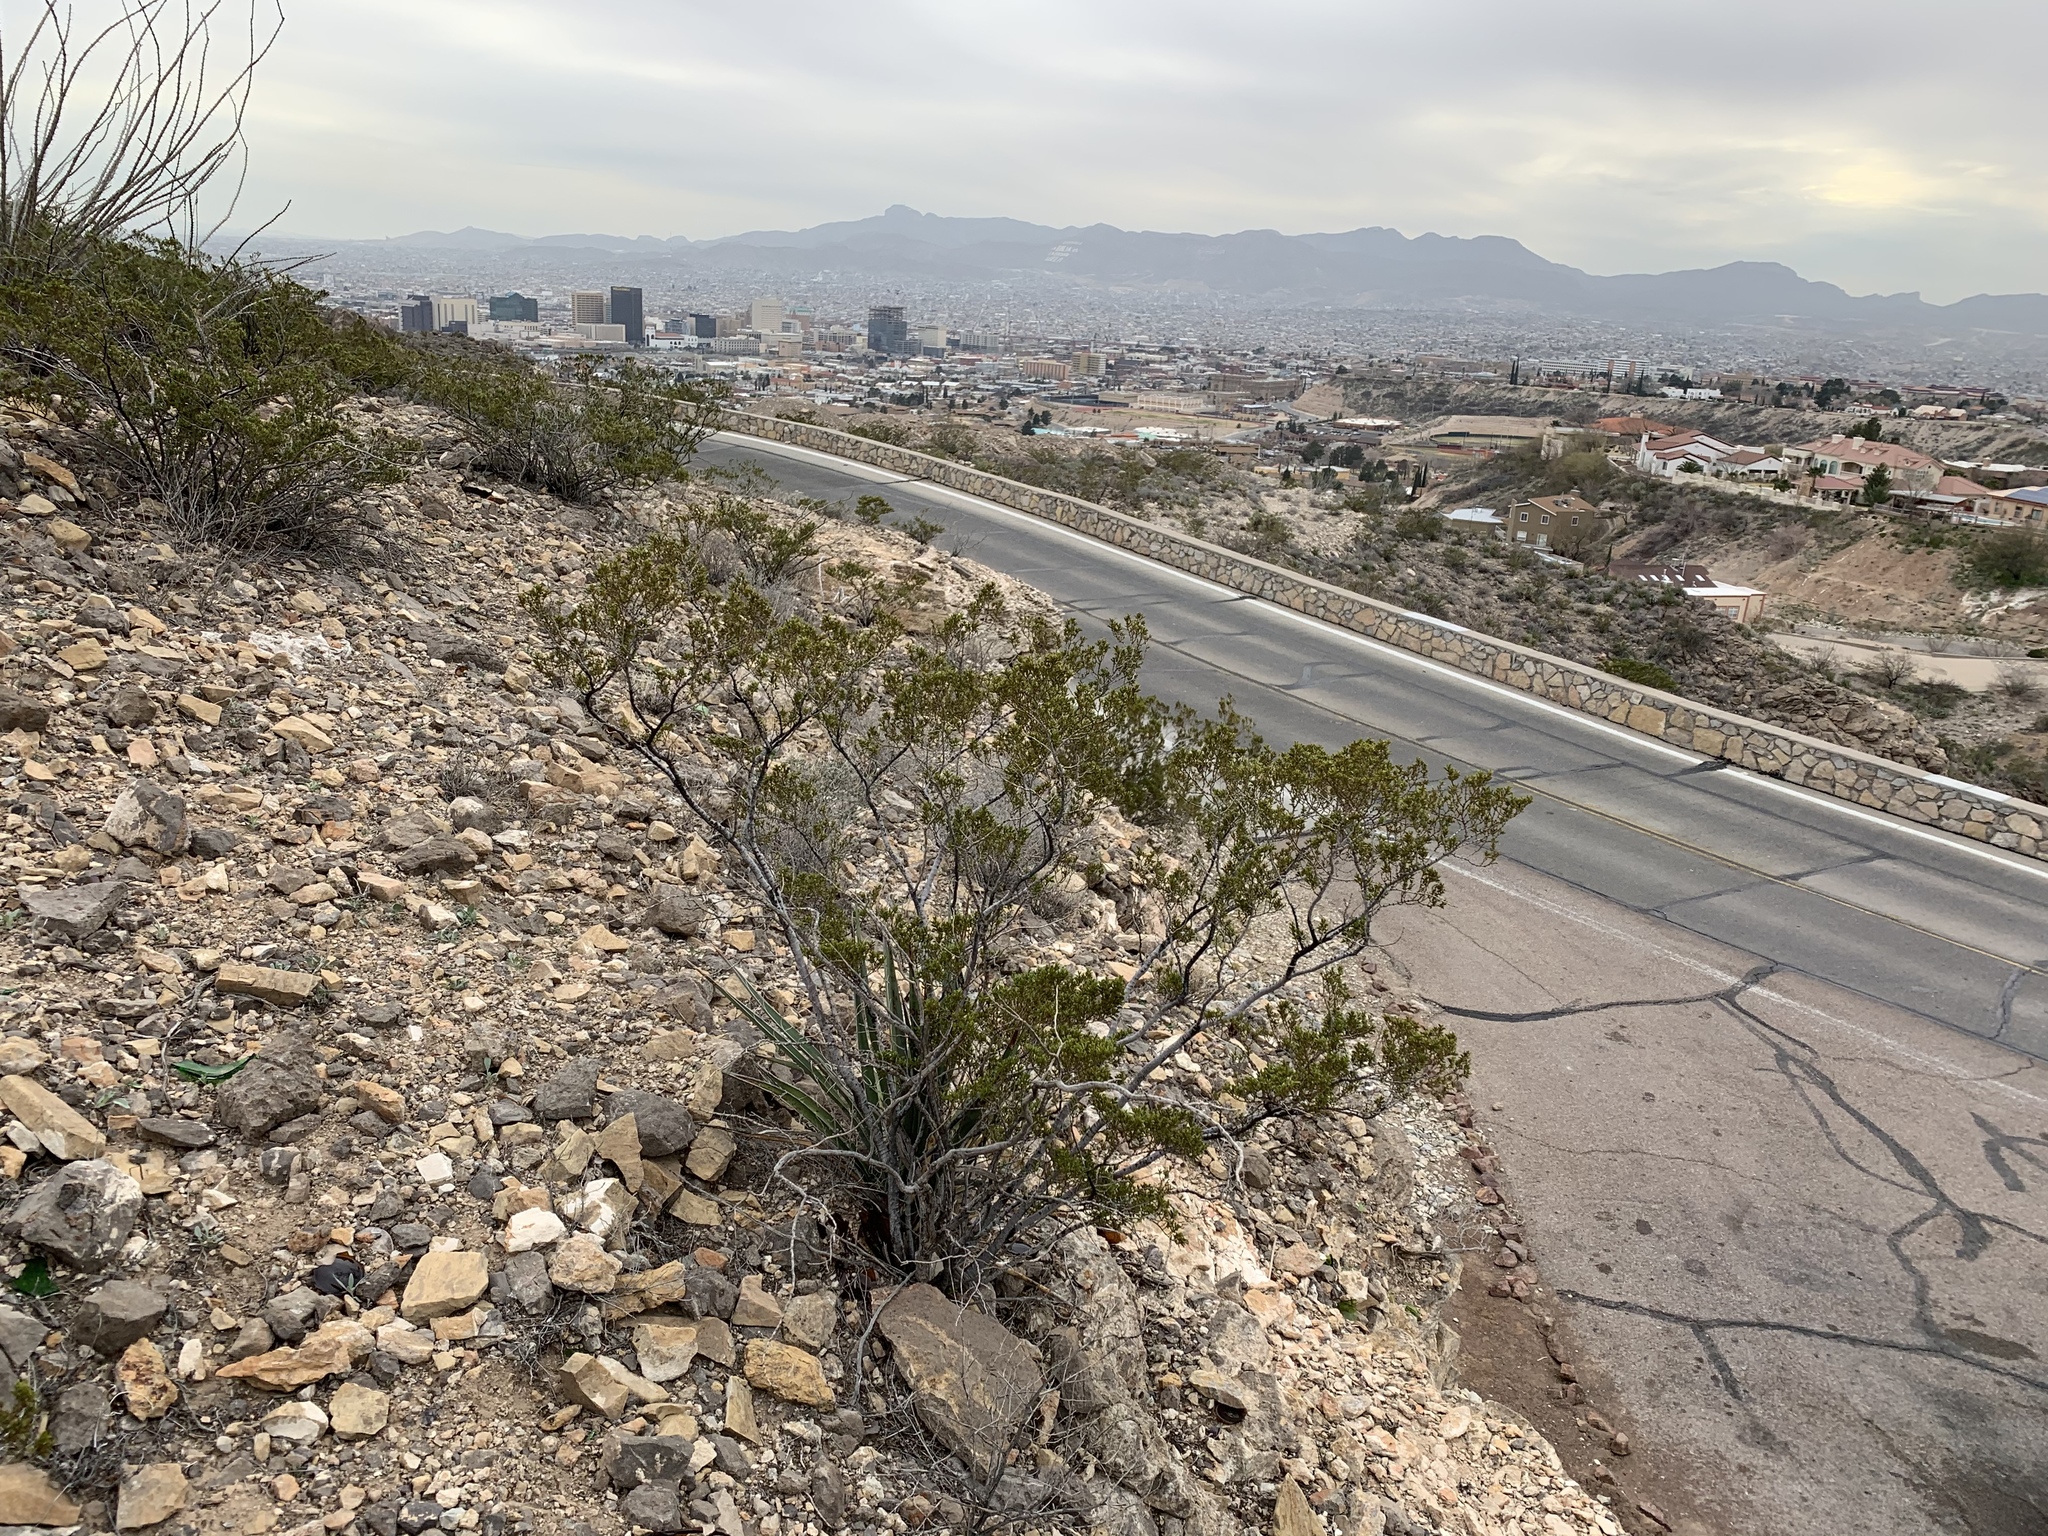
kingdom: Plantae
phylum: Tracheophyta
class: Magnoliopsida
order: Zygophyllales
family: Zygophyllaceae
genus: Larrea
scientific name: Larrea tridentata
